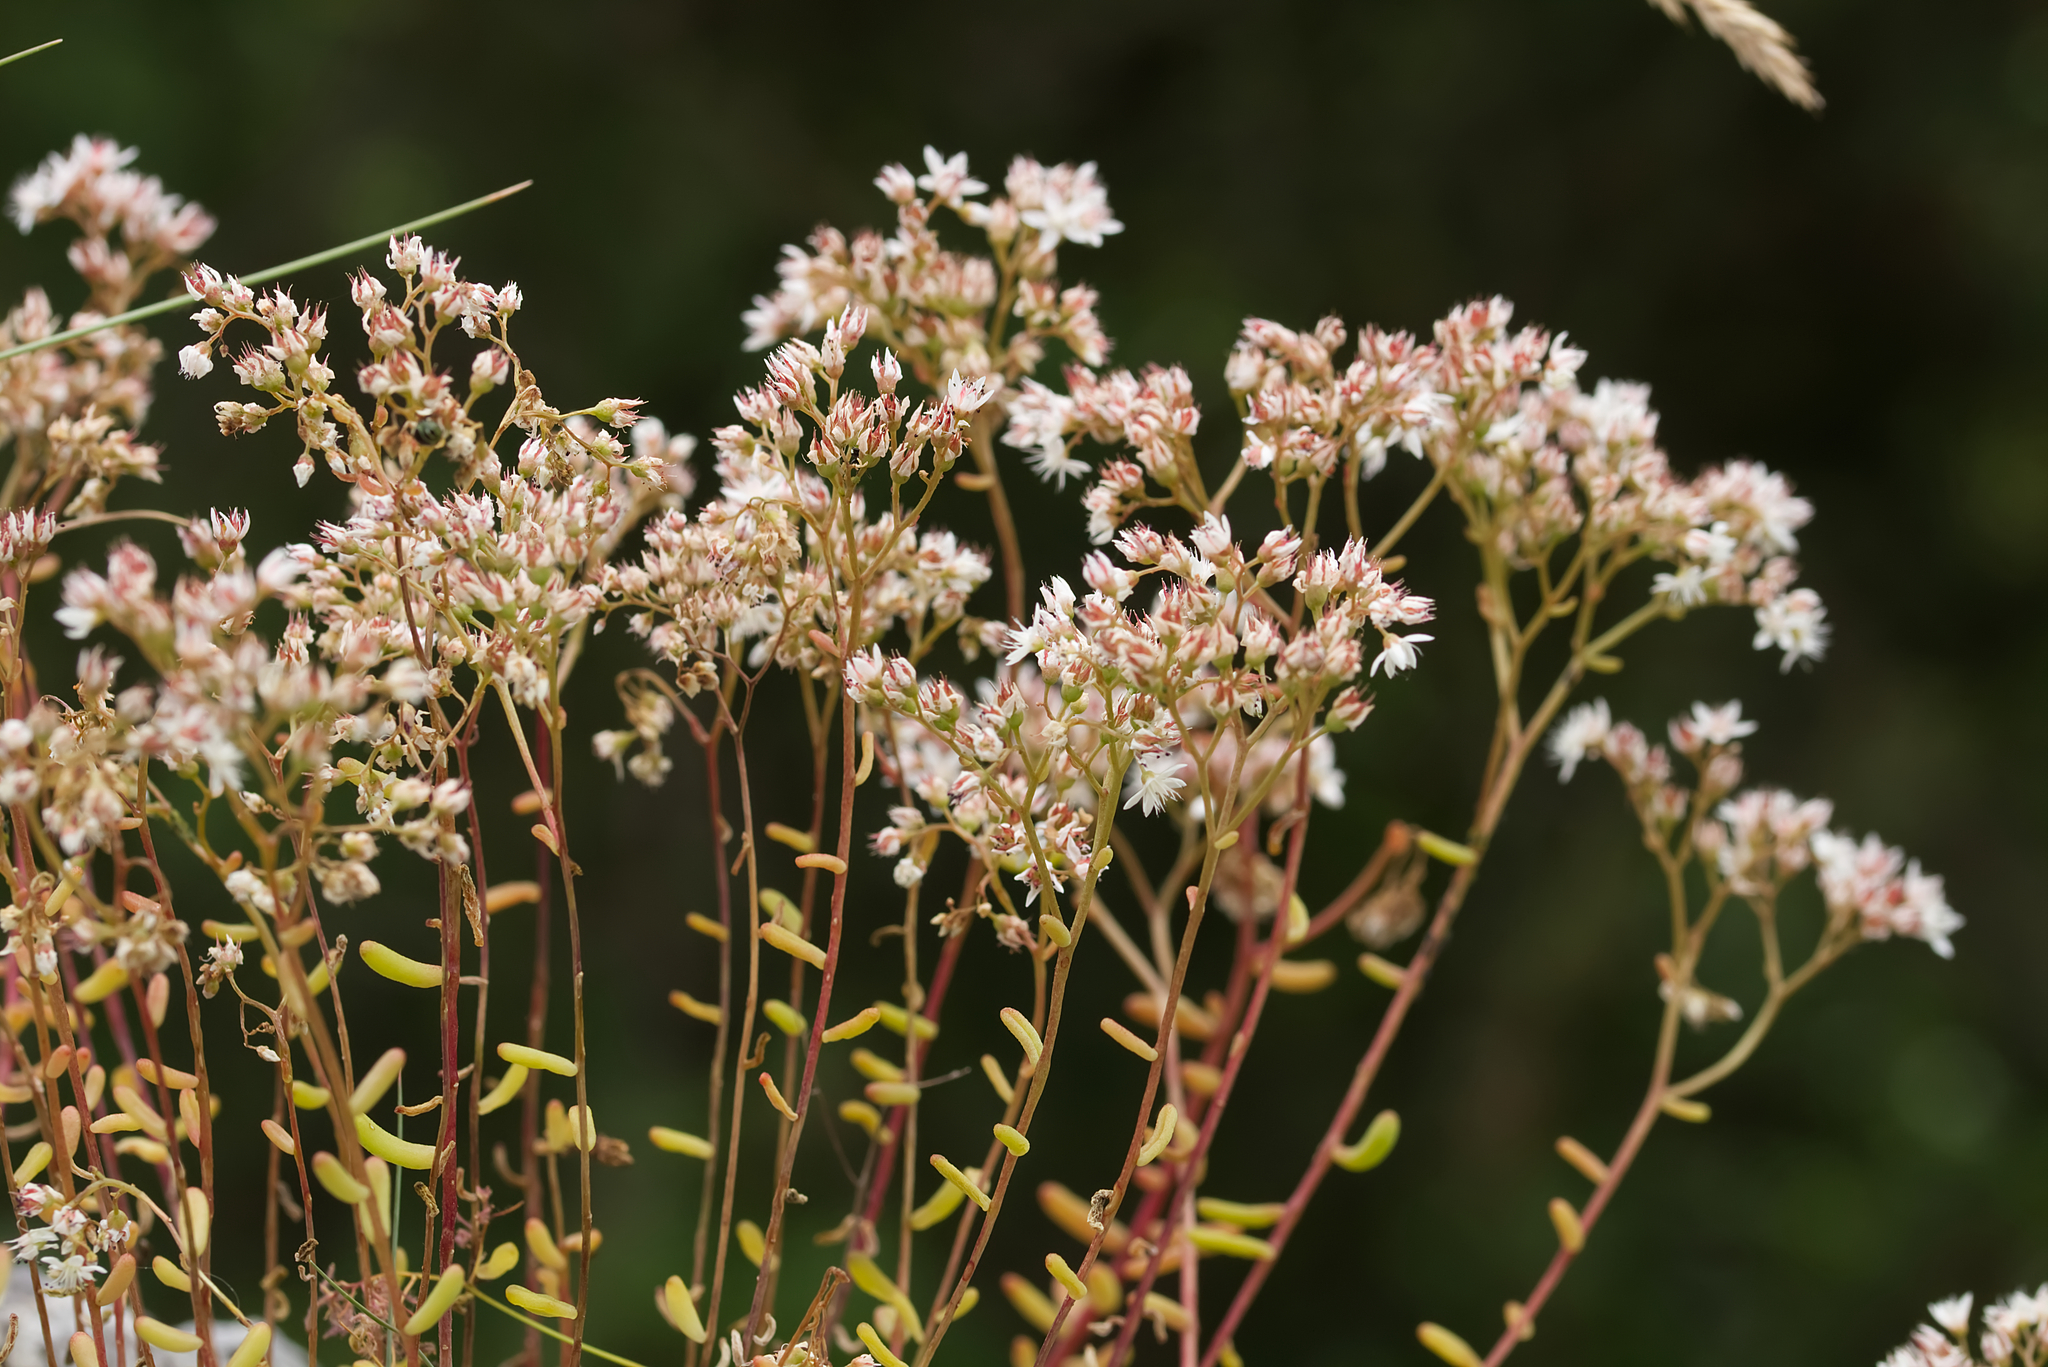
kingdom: Plantae
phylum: Tracheophyta
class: Magnoliopsida
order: Saxifragales
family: Crassulaceae
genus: Sedum
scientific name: Sedum album
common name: White stonecrop
